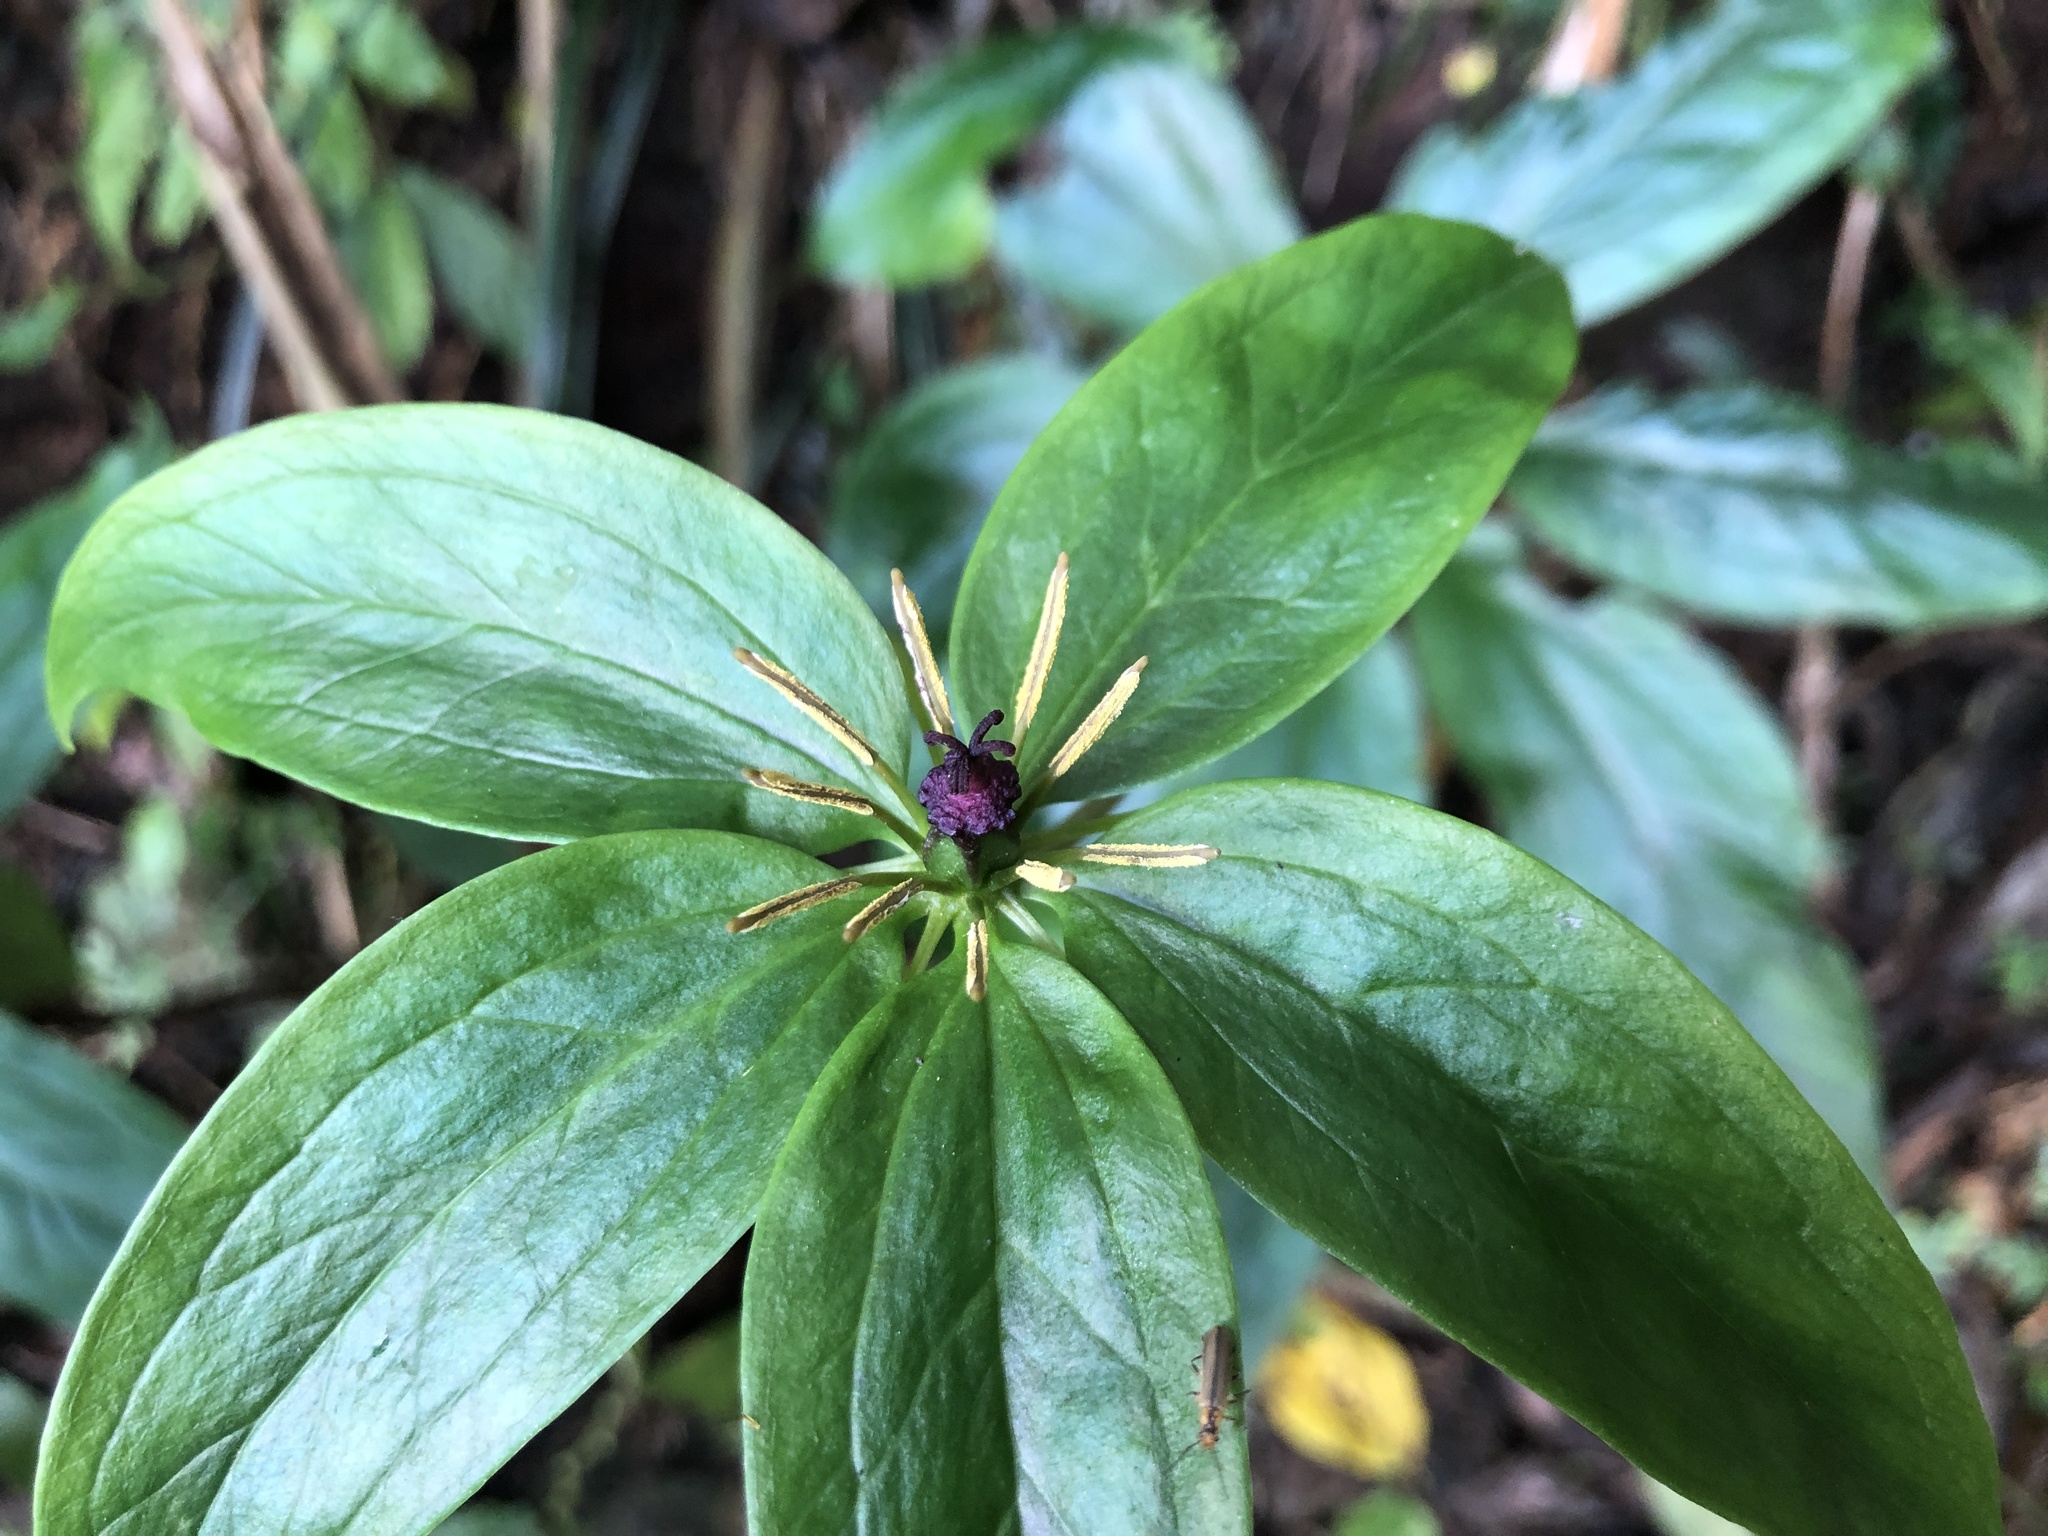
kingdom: Plantae
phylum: Tracheophyta
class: Liliopsida
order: Liliales
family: Melanthiaceae
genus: Paris
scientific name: Paris polyphylla
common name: Love apple
